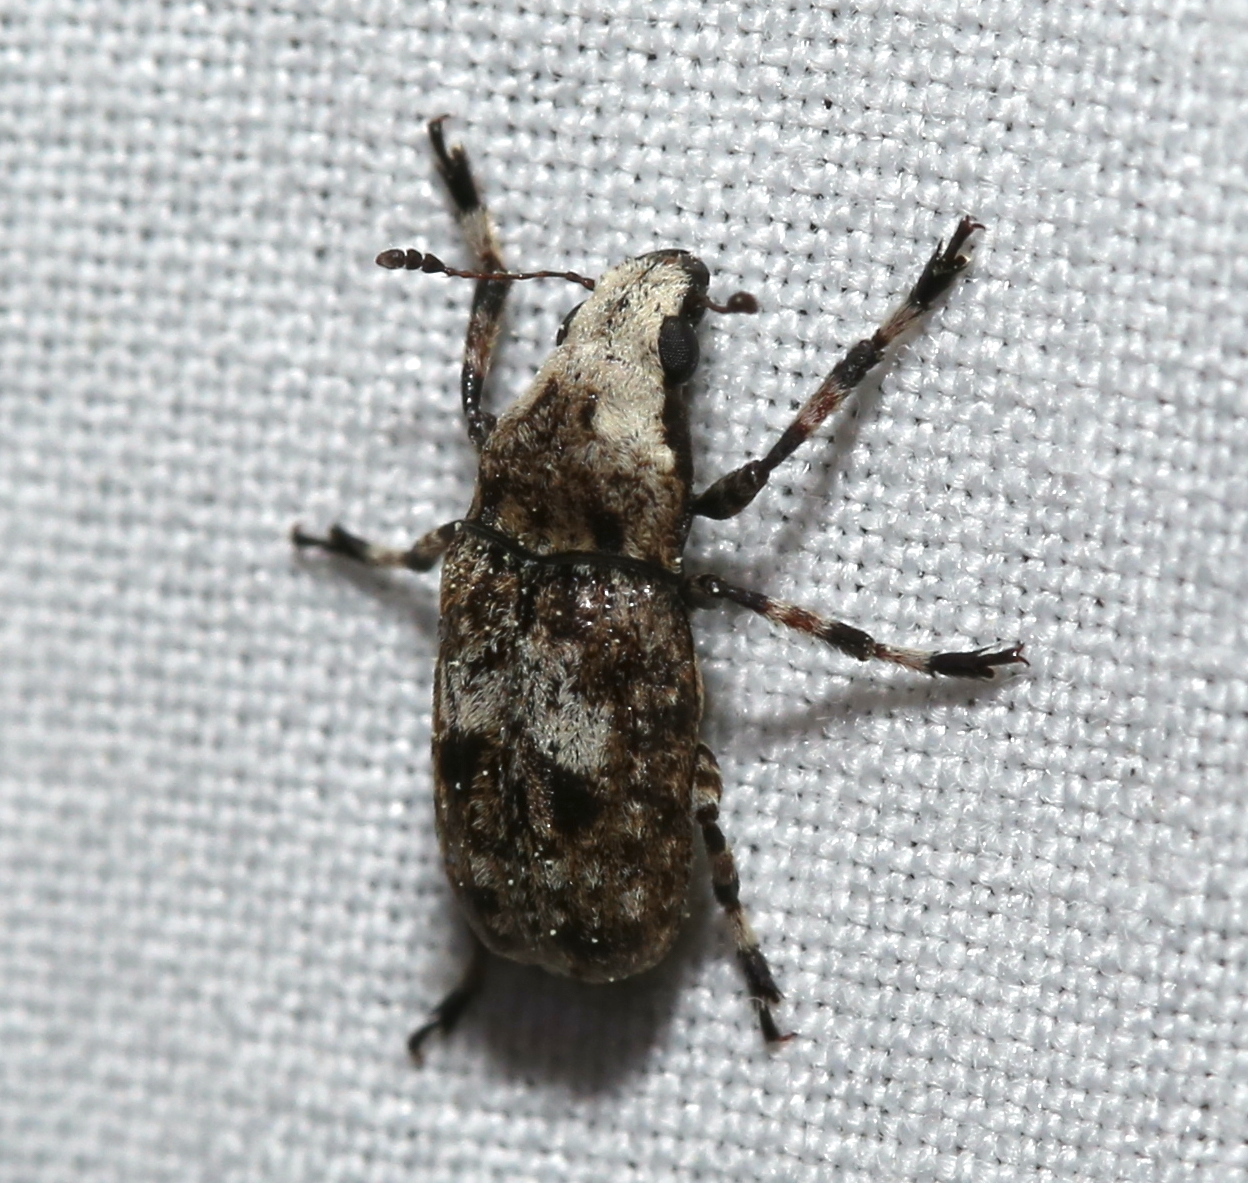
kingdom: Animalia
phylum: Arthropoda
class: Insecta
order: Coleoptera
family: Anthribidae
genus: Euparius
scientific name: Euparius marmoreus
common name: Marbled fungus weevil
